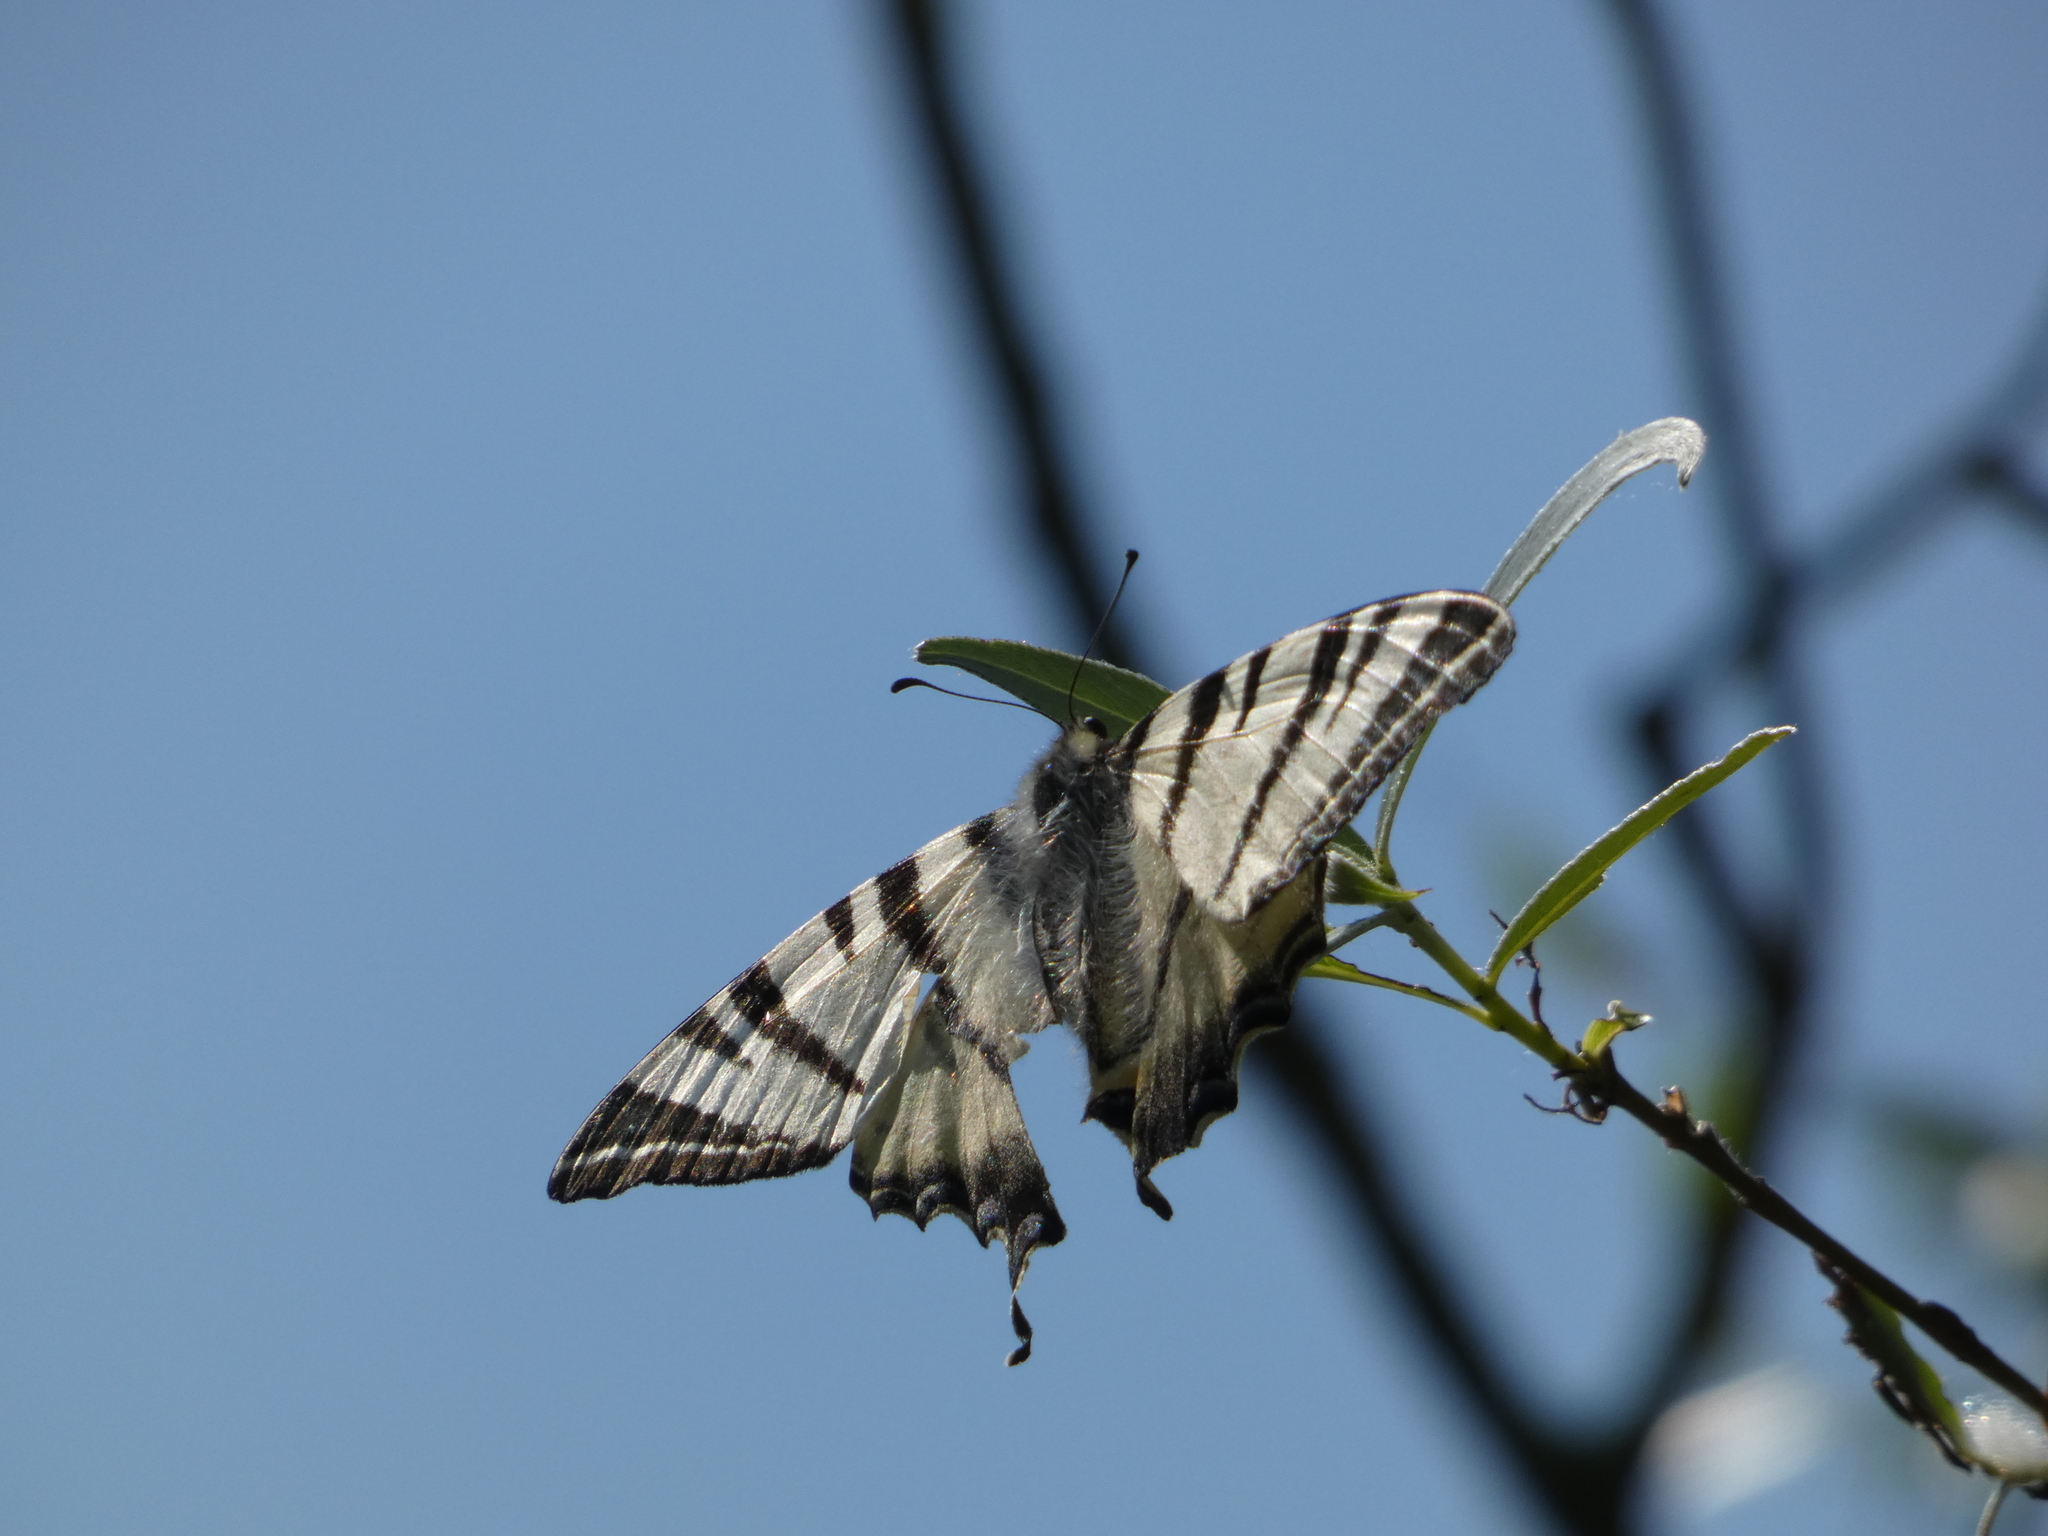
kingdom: Animalia
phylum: Arthropoda
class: Insecta
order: Lepidoptera
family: Papilionidae
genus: Iphiclides
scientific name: Iphiclides podalirius
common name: Scarce swallowtail
